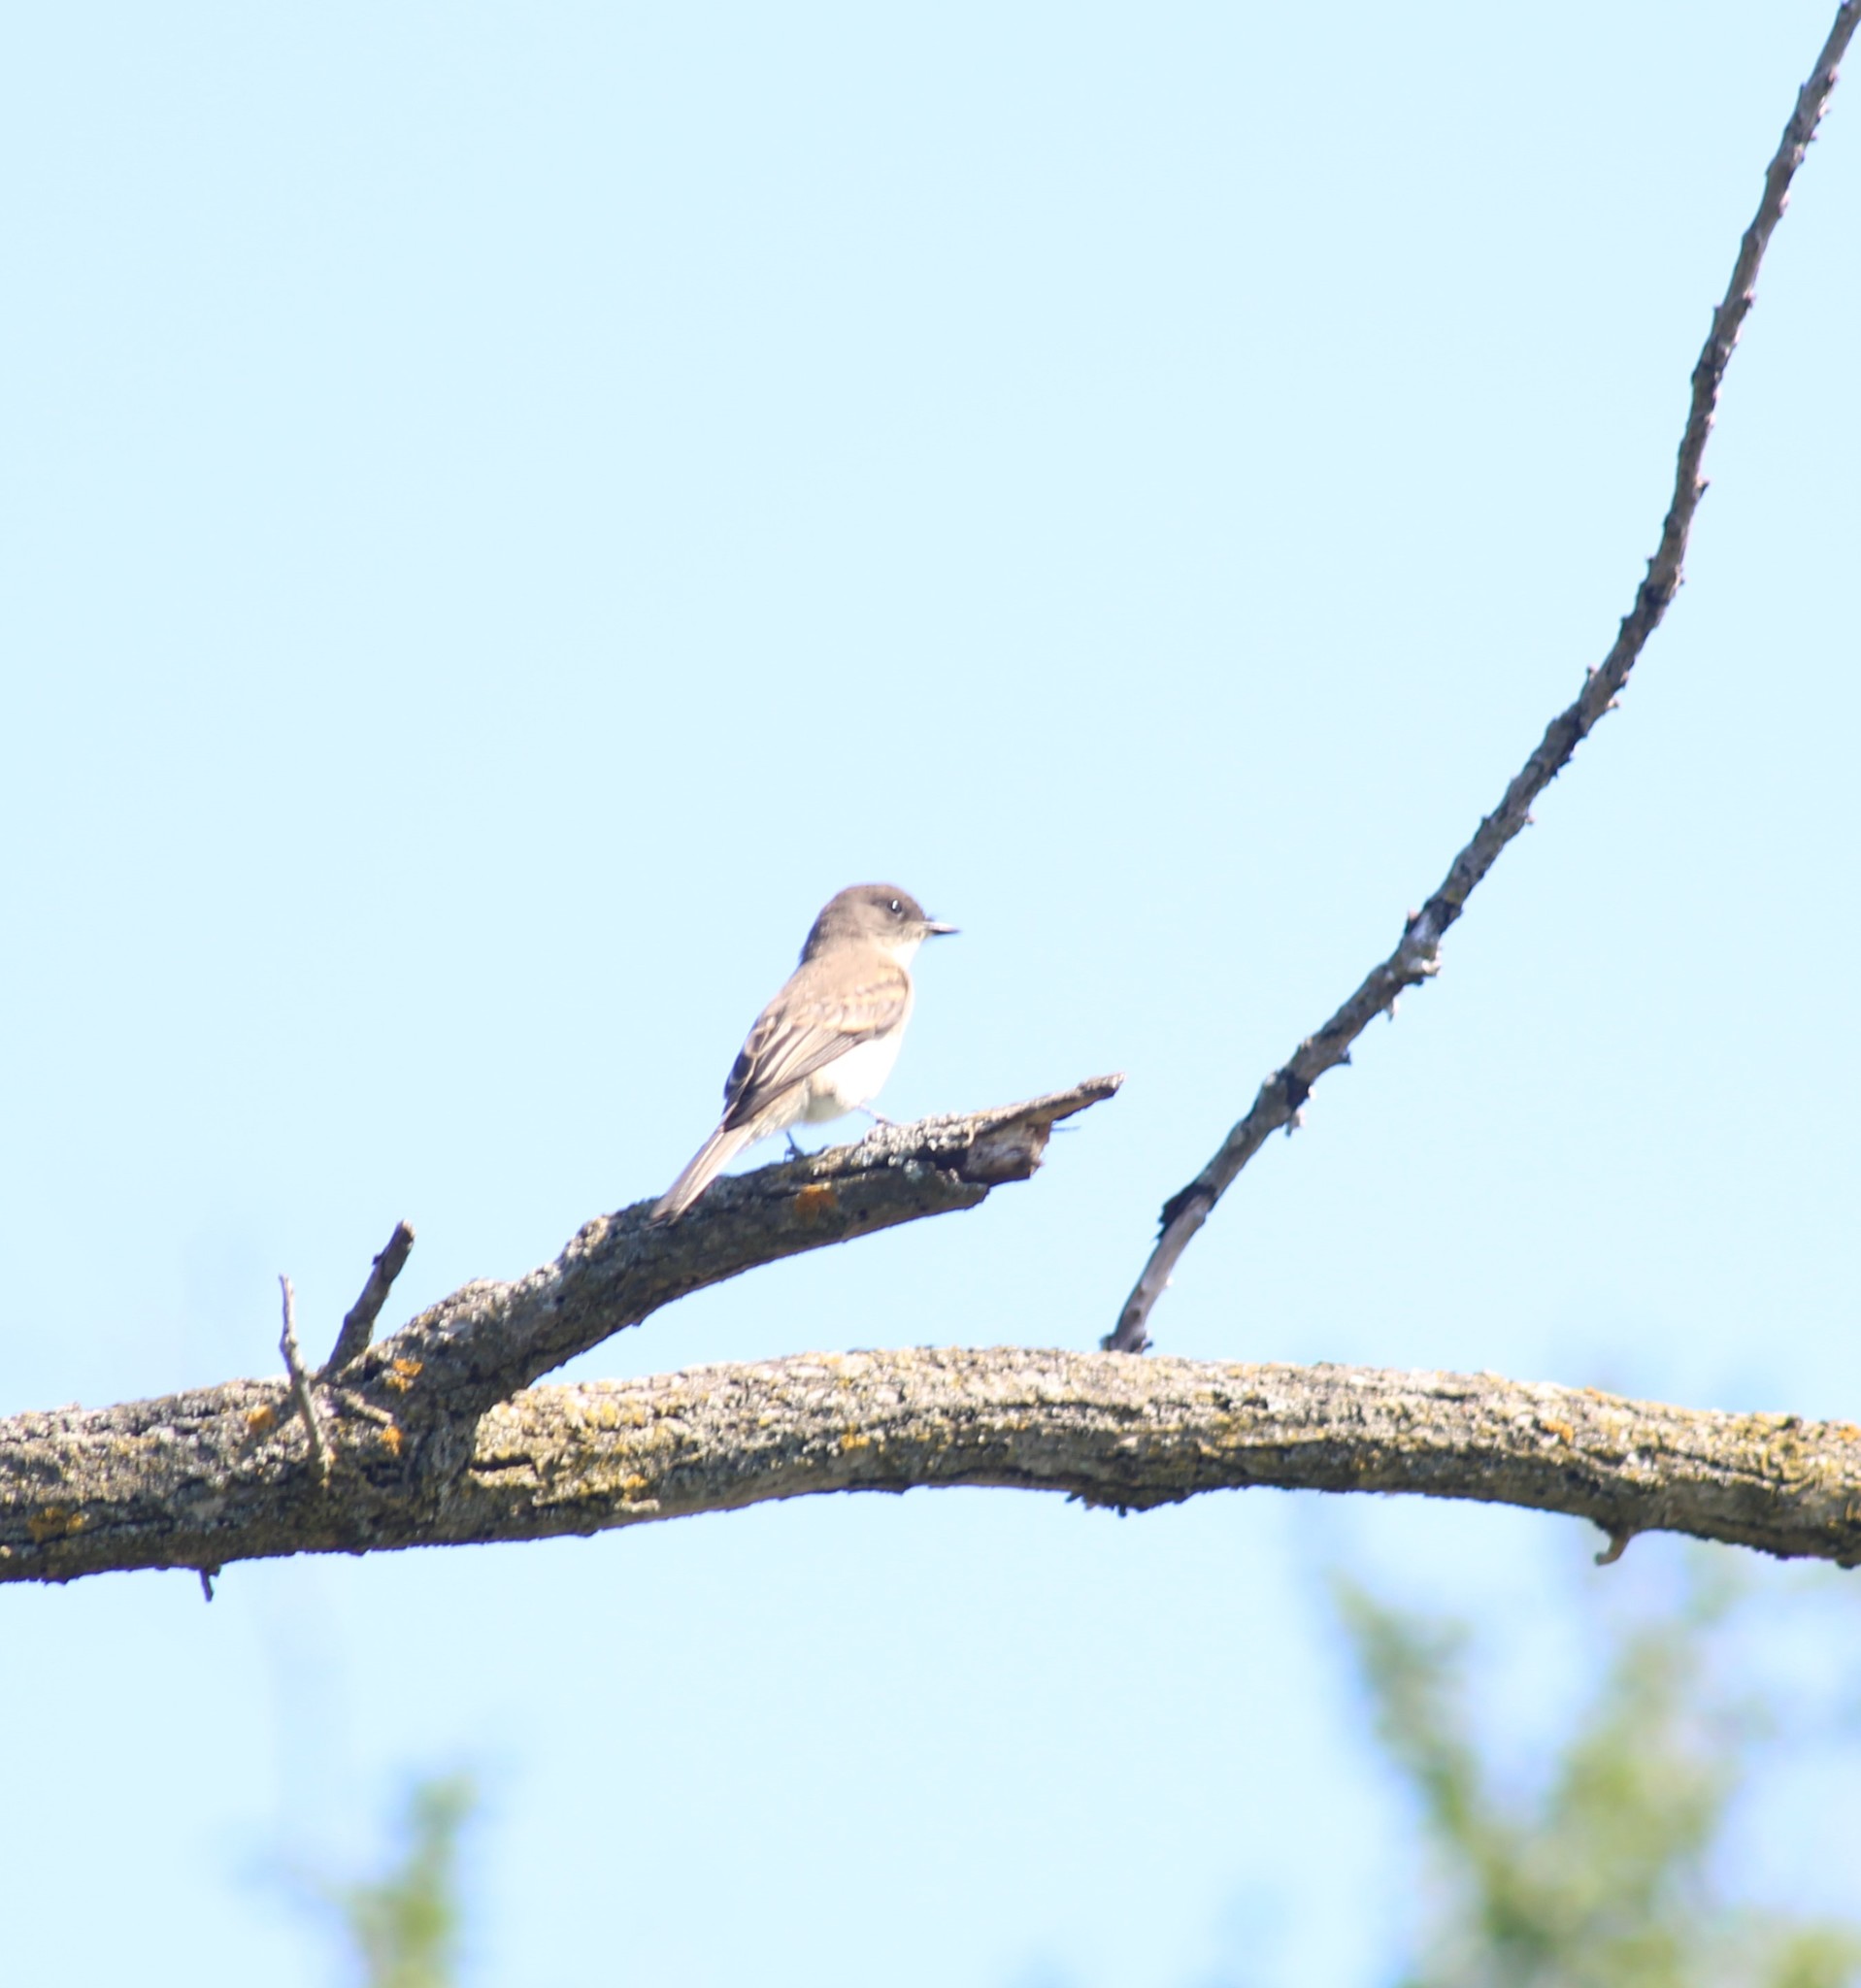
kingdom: Animalia
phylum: Chordata
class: Aves
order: Passeriformes
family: Tyrannidae
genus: Sayornis
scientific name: Sayornis phoebe
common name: Eastern phoebe
